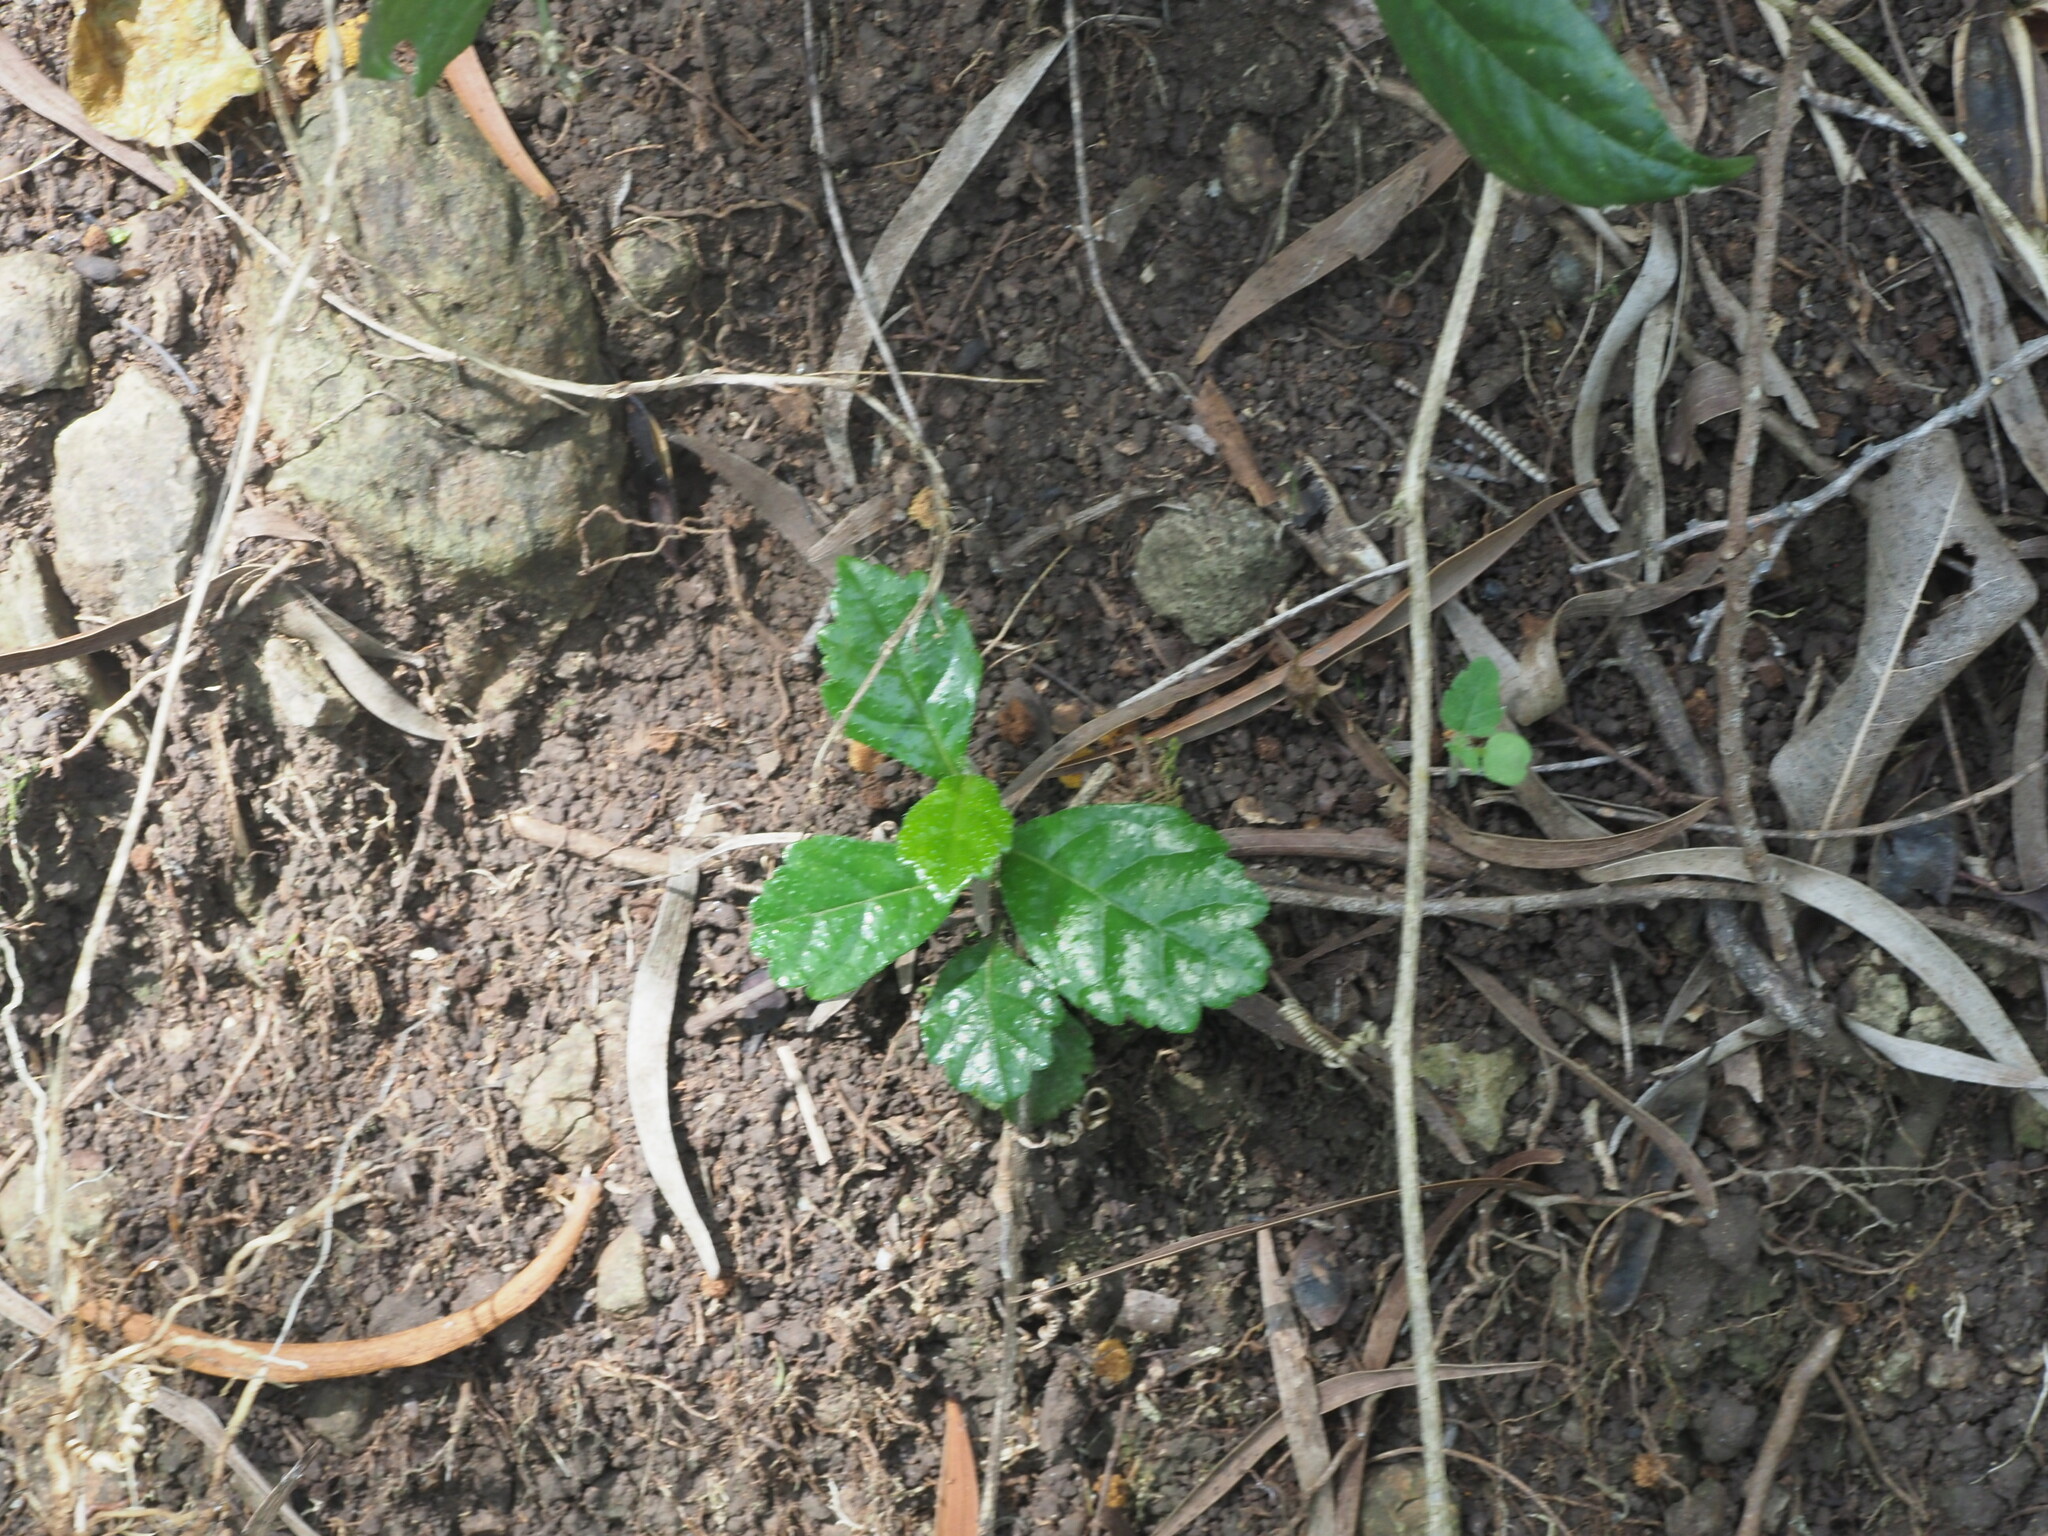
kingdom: Plantae
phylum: Tracheophyta
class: Magnoliopsida
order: Boraginales
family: Ehretiaceae
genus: Ehretia
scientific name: Ehretia microphylla
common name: Fukien-tea
